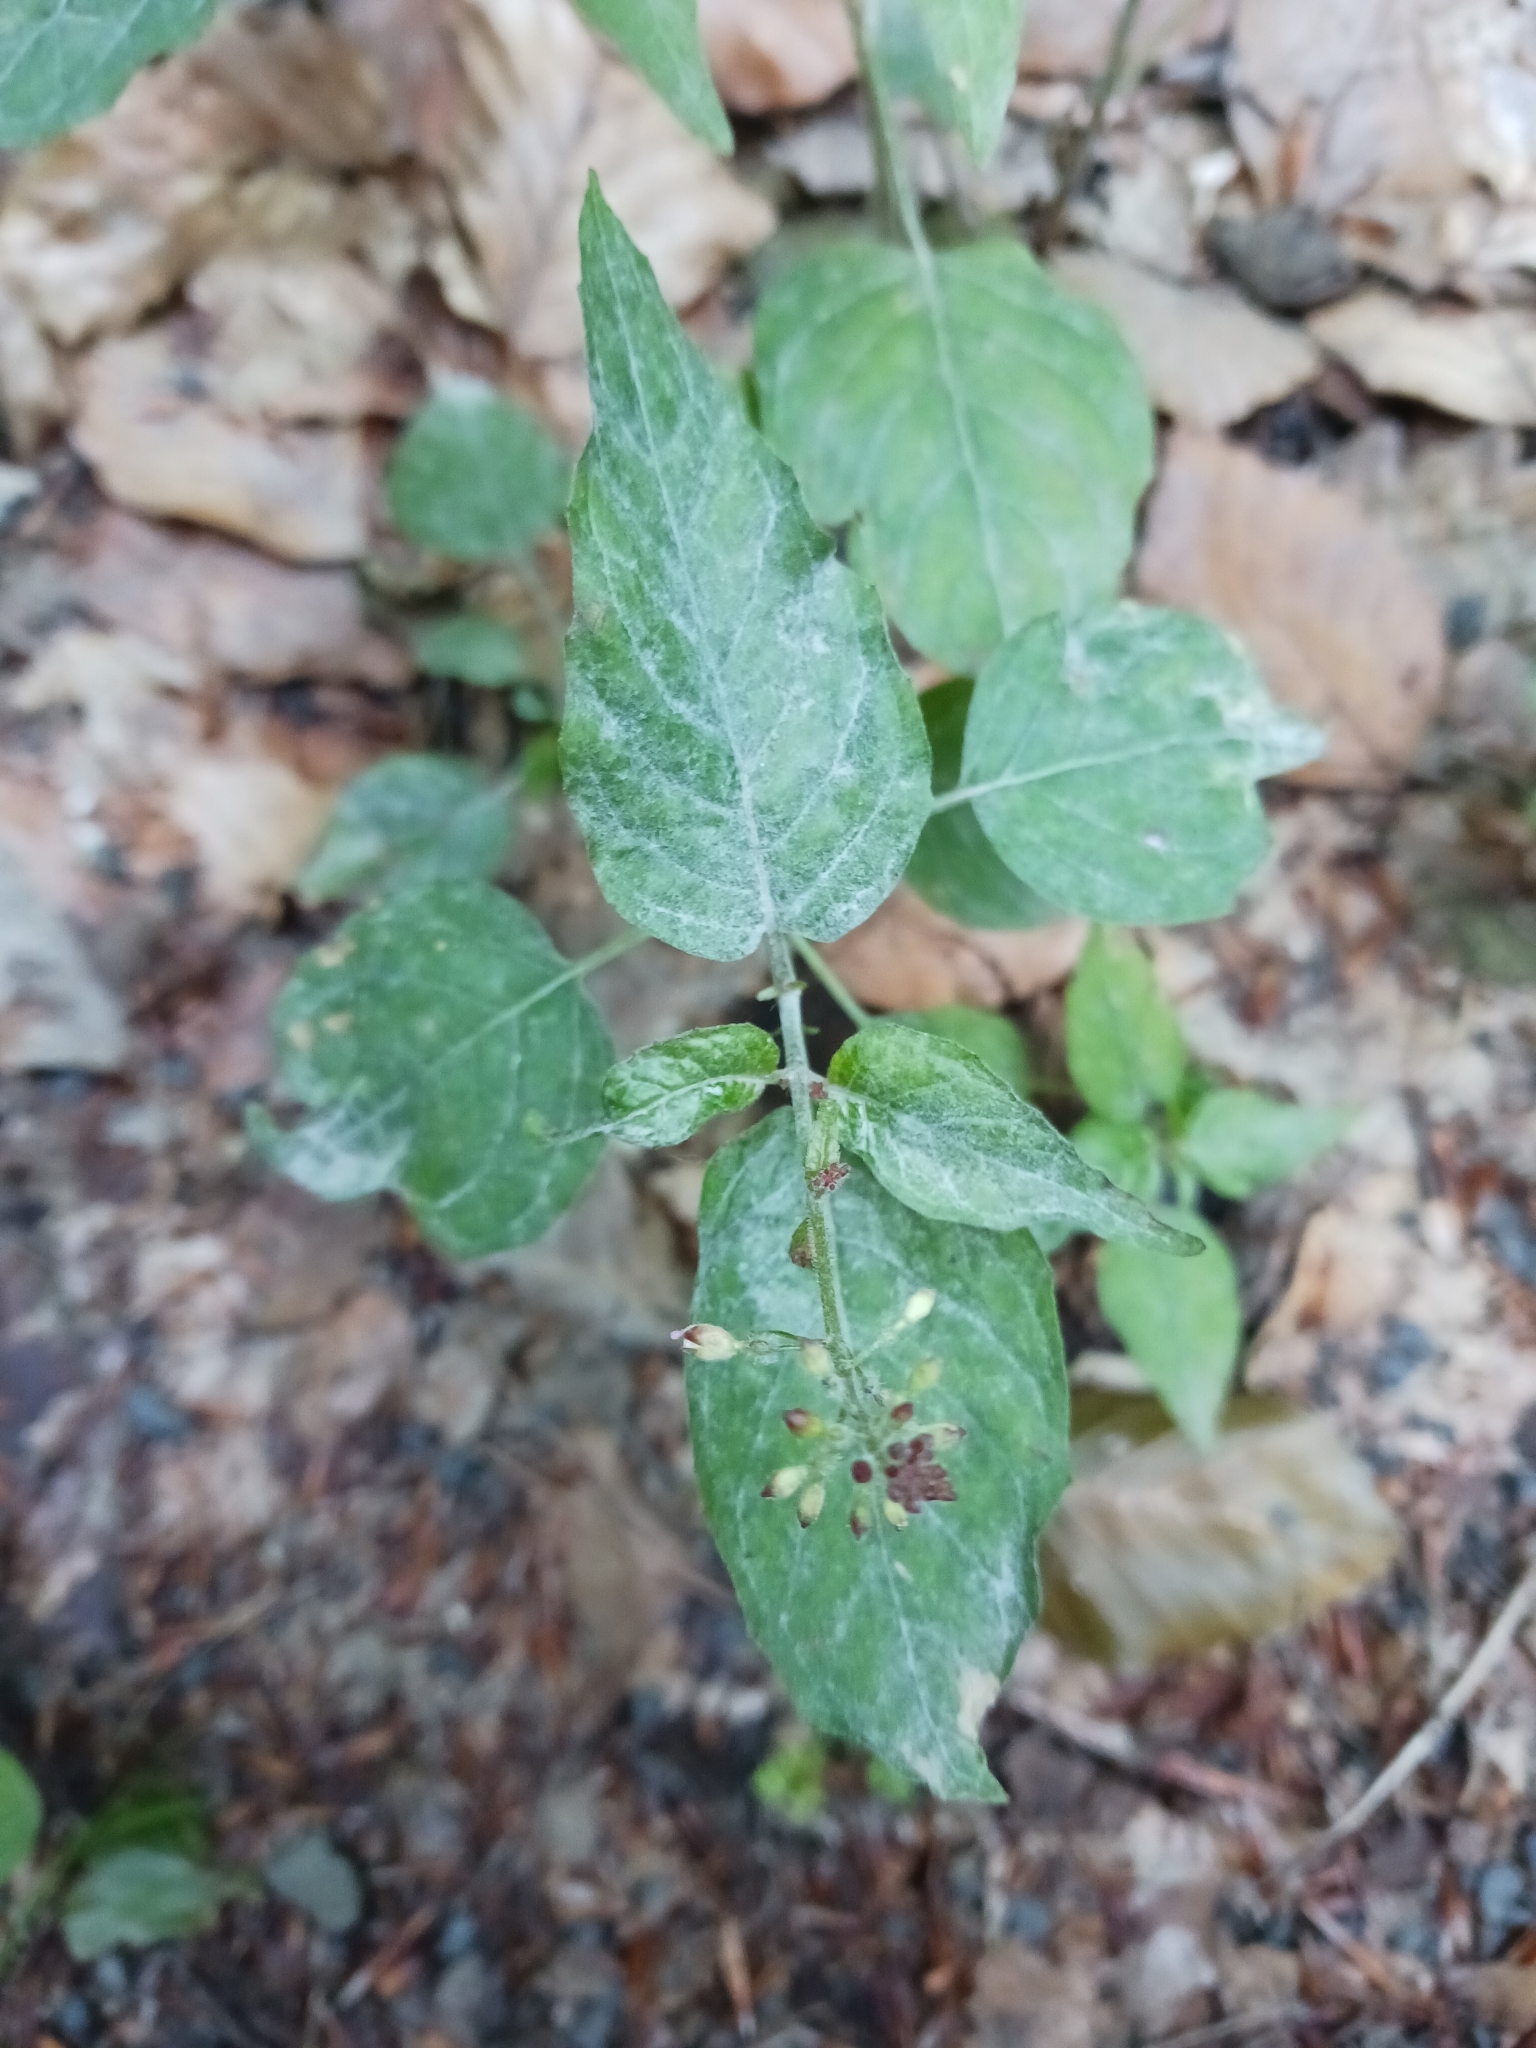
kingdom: Fungi
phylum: Ascomycota
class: Leotiomycetes
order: Helotiales
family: Erysiphaceae
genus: Erysiphe
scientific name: Erysiphe circaeae
